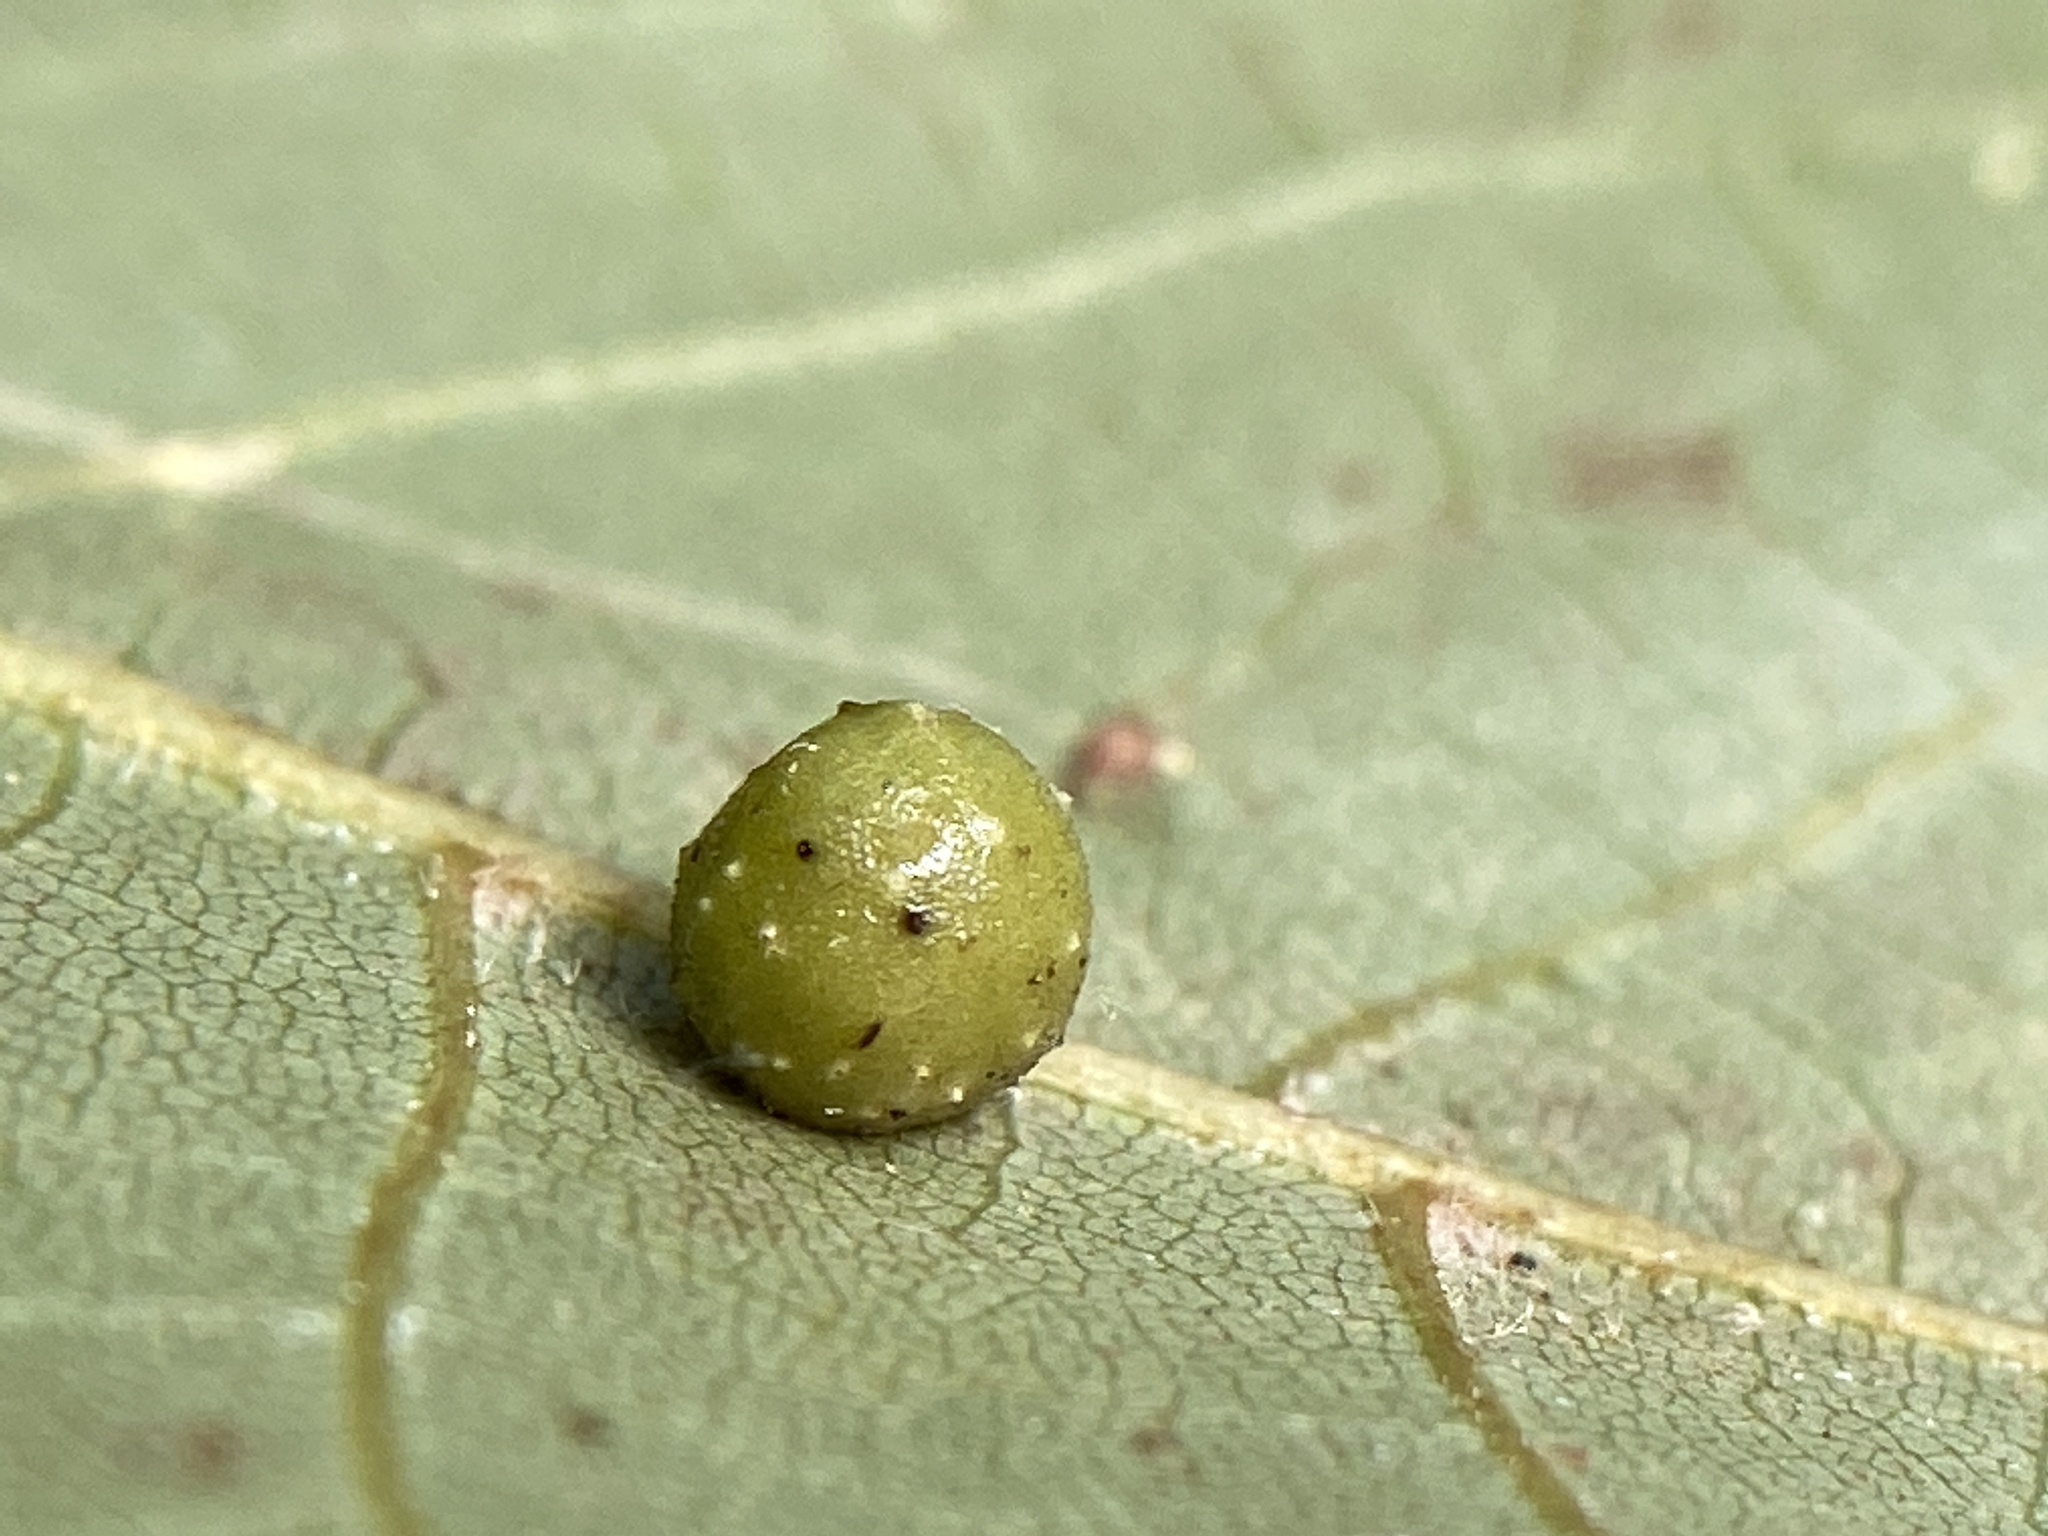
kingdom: Animalia
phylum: Arthropoda
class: Insecta
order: Diptera
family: Cecidomyiidae
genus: Caryomyia
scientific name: Caryomyia tuberculata
